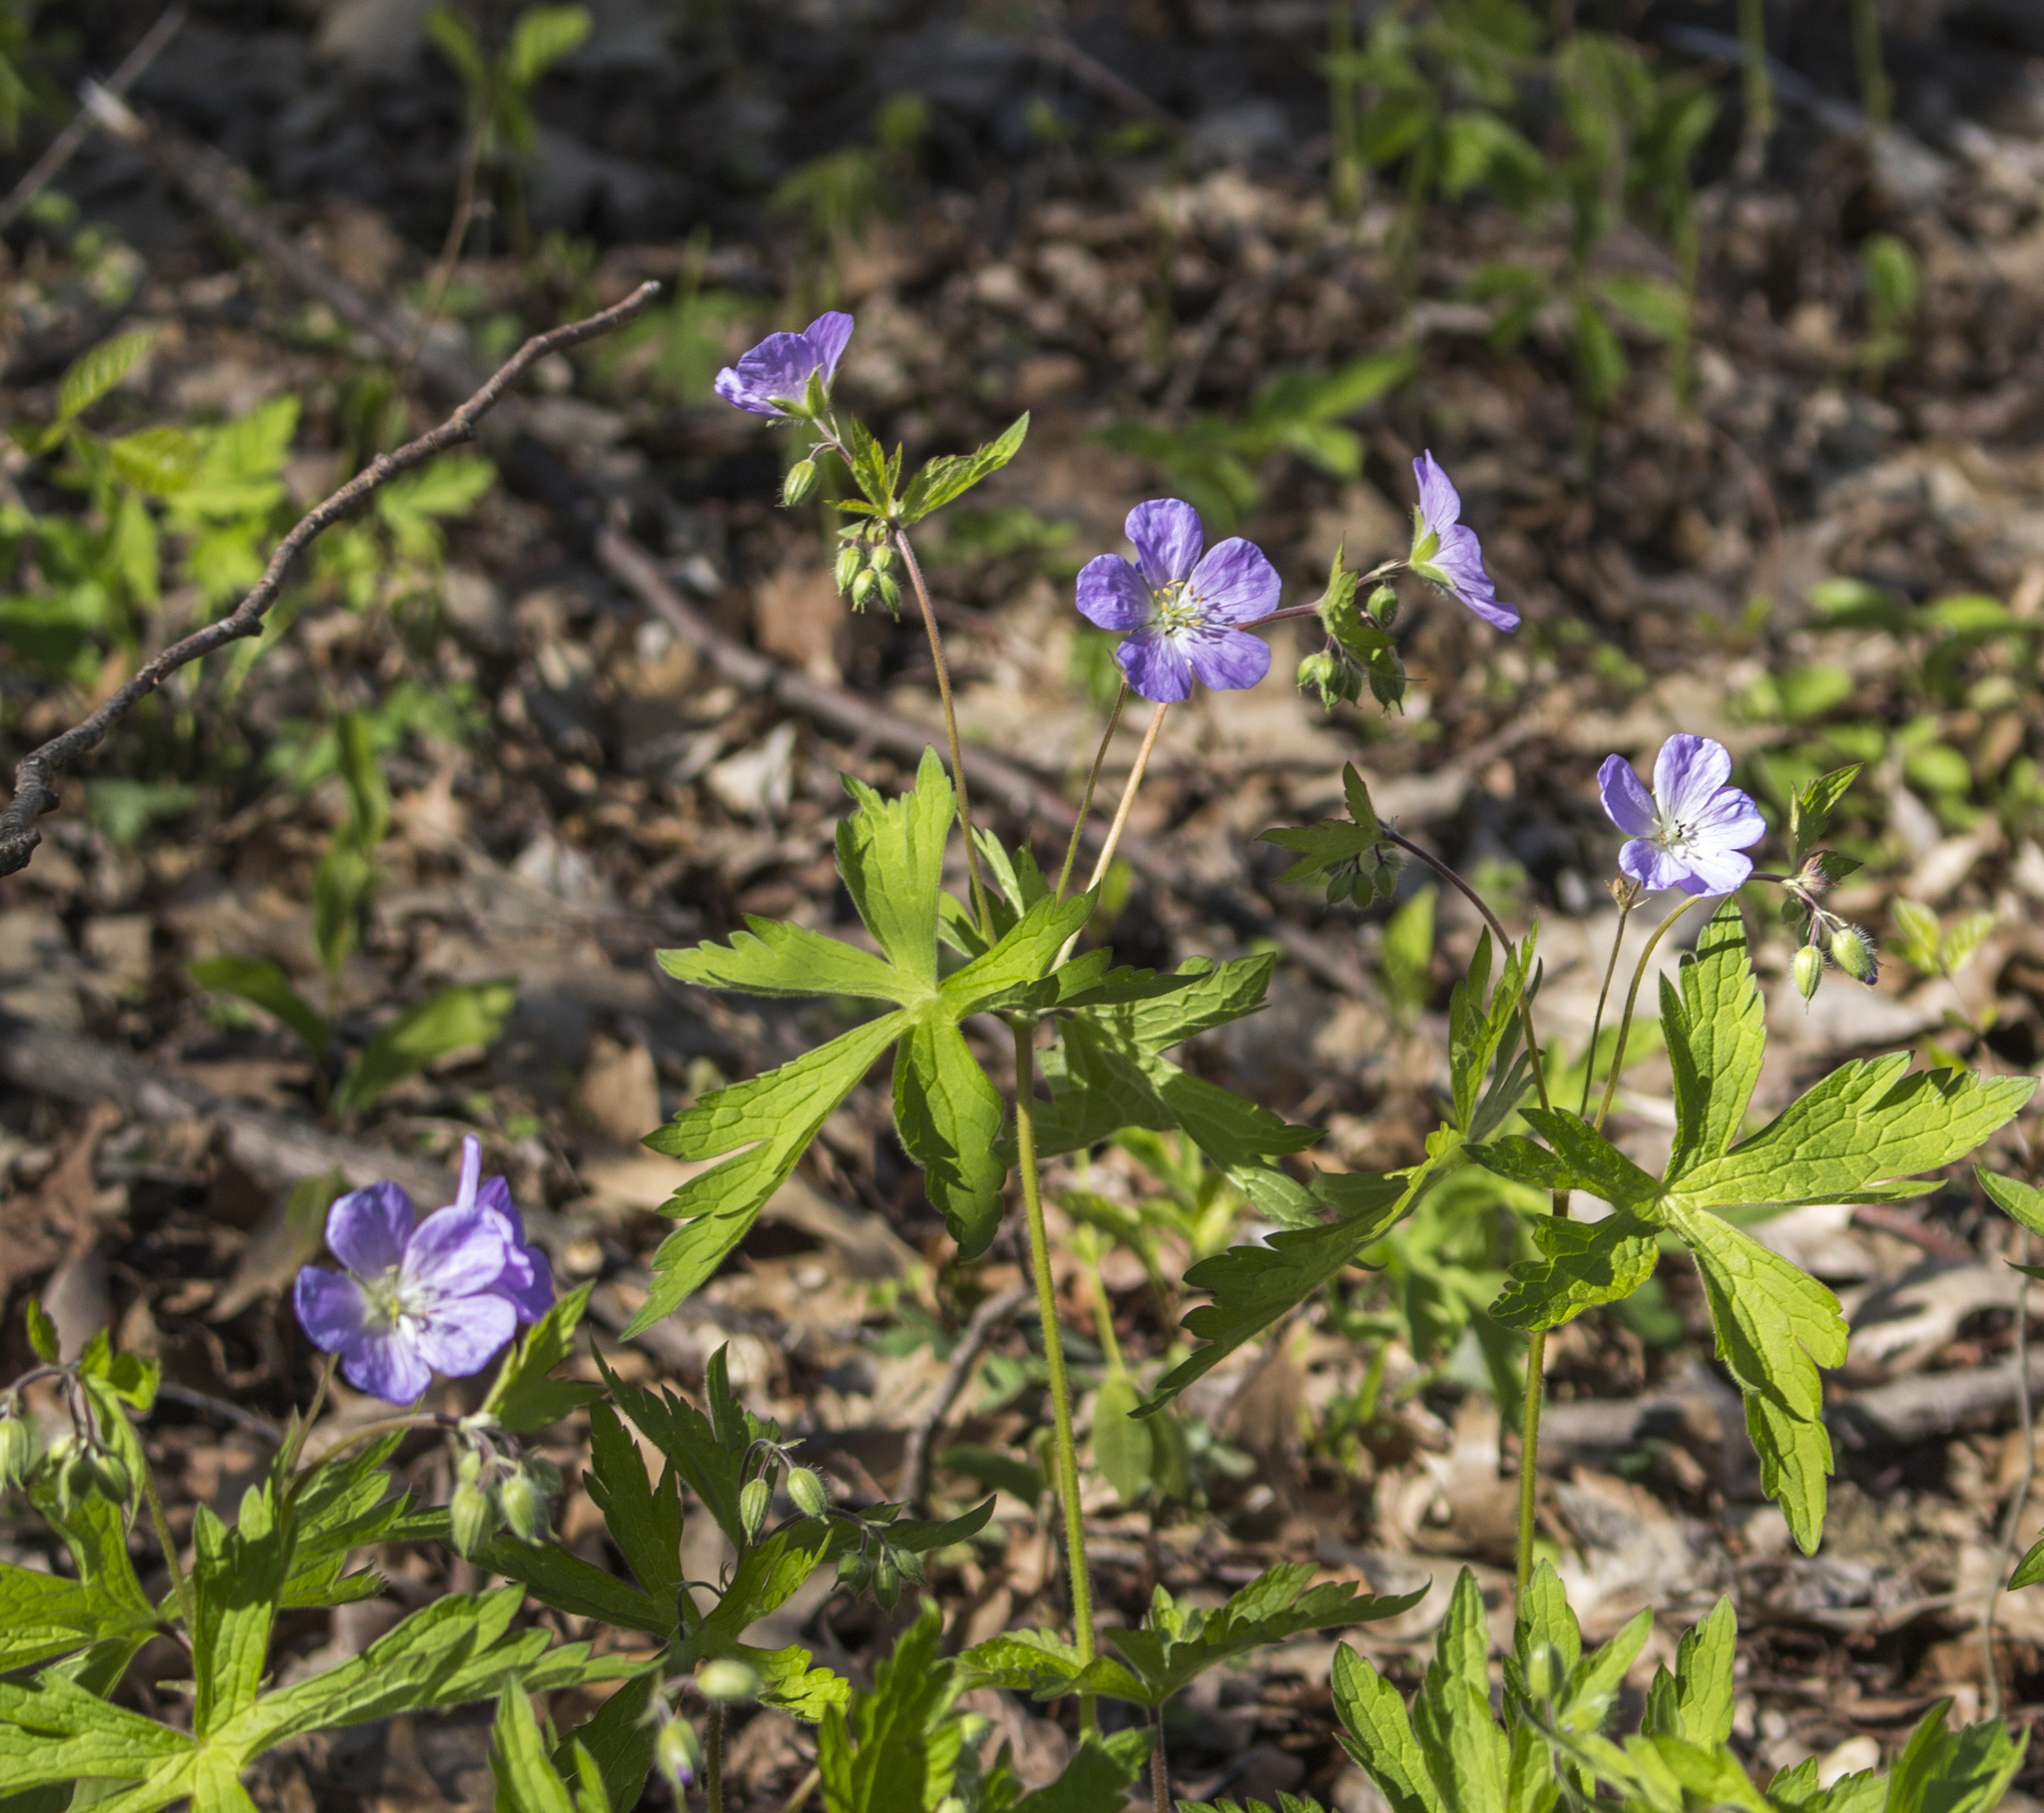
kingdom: Plantae
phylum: Tracheophyta
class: Magnoliopsida
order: Geraniales
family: Geraniaceae
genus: Geranium
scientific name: Geranium maculatum
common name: Spotted geranium
